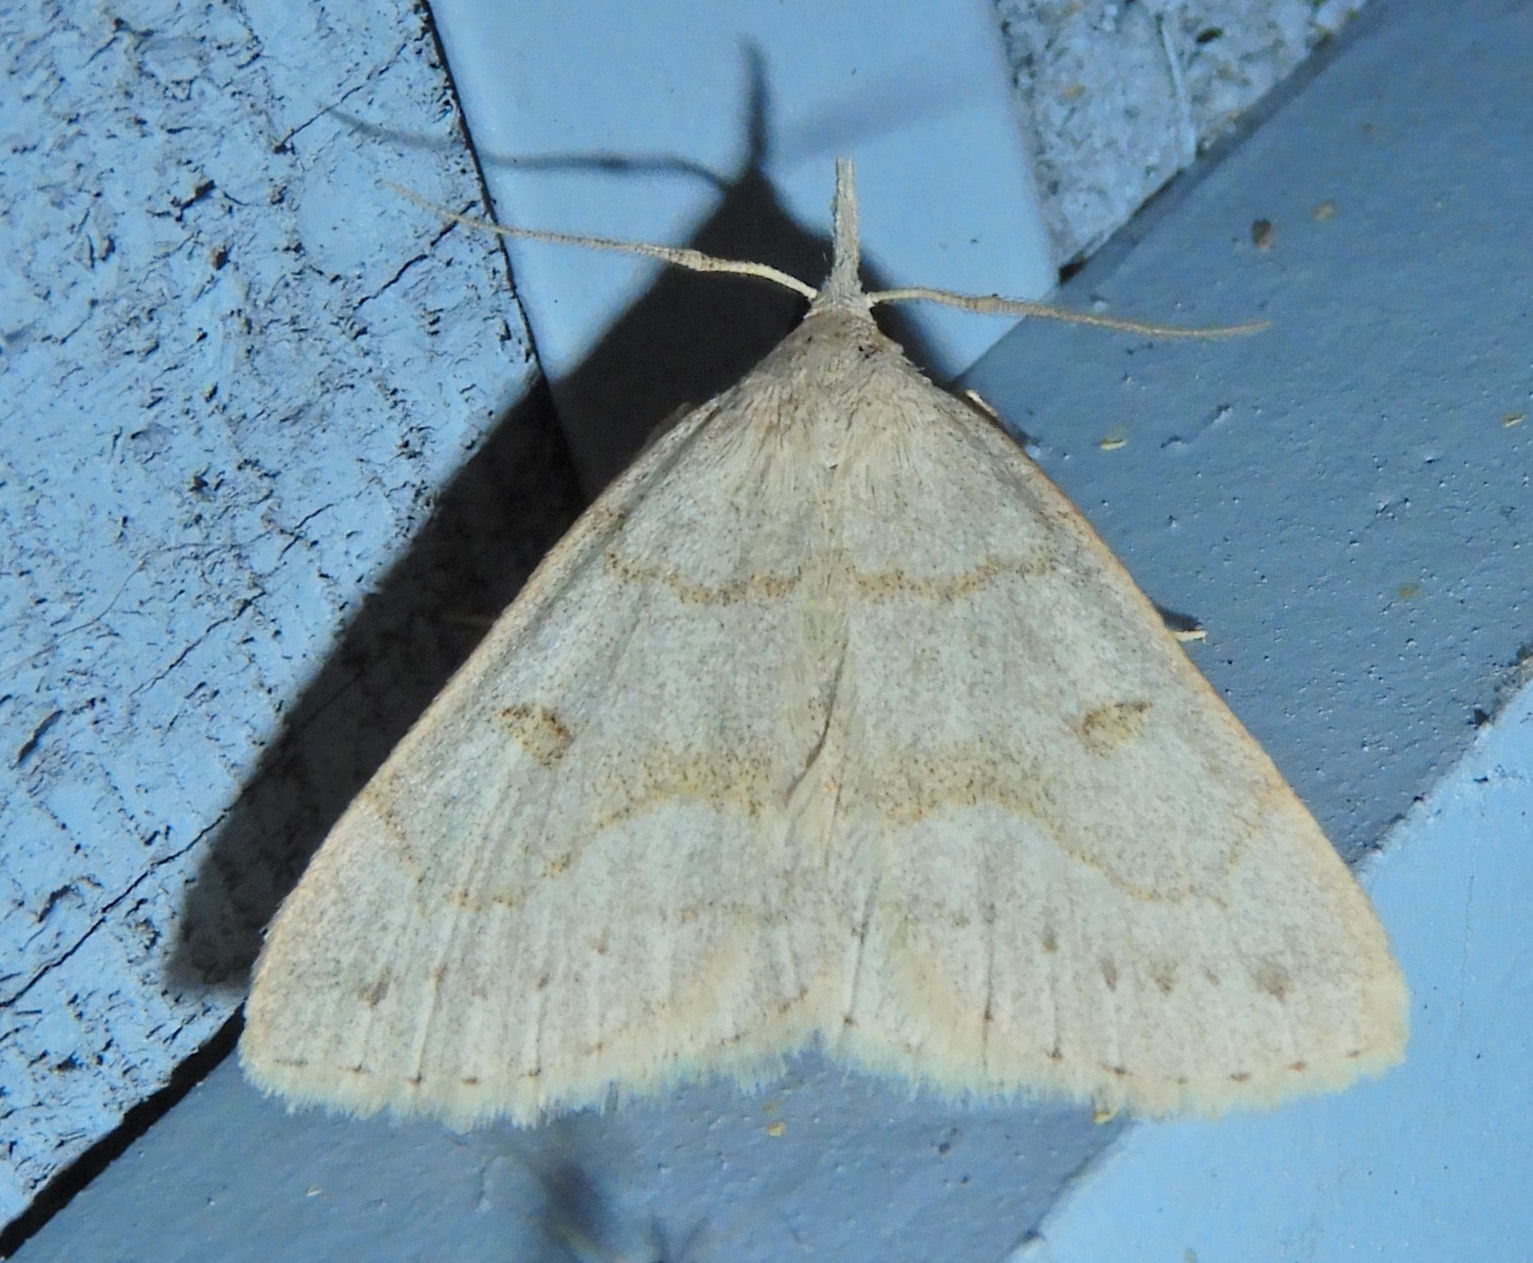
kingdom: Animalia
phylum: Arthropoda
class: Insecta
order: Lepidoptera
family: Erebidae
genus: Macrochilo
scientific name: Macrochilo morbidalis
